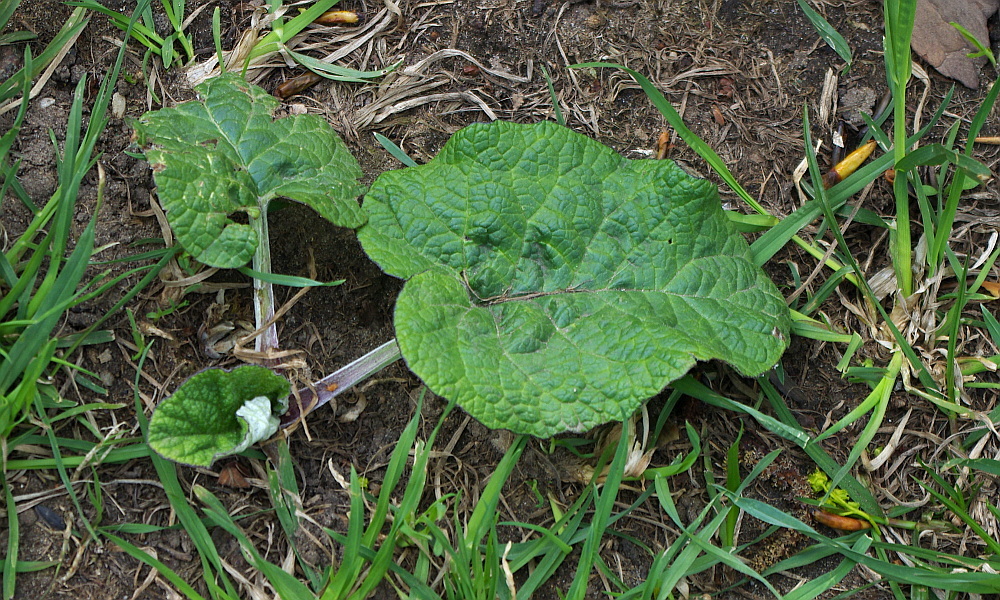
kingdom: Plantae
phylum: Tracheophyta
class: Magnoliopsida
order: Asterales
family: Asteraceae
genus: Arctium
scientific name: Arctium tomentosum
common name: Woolly burdock
